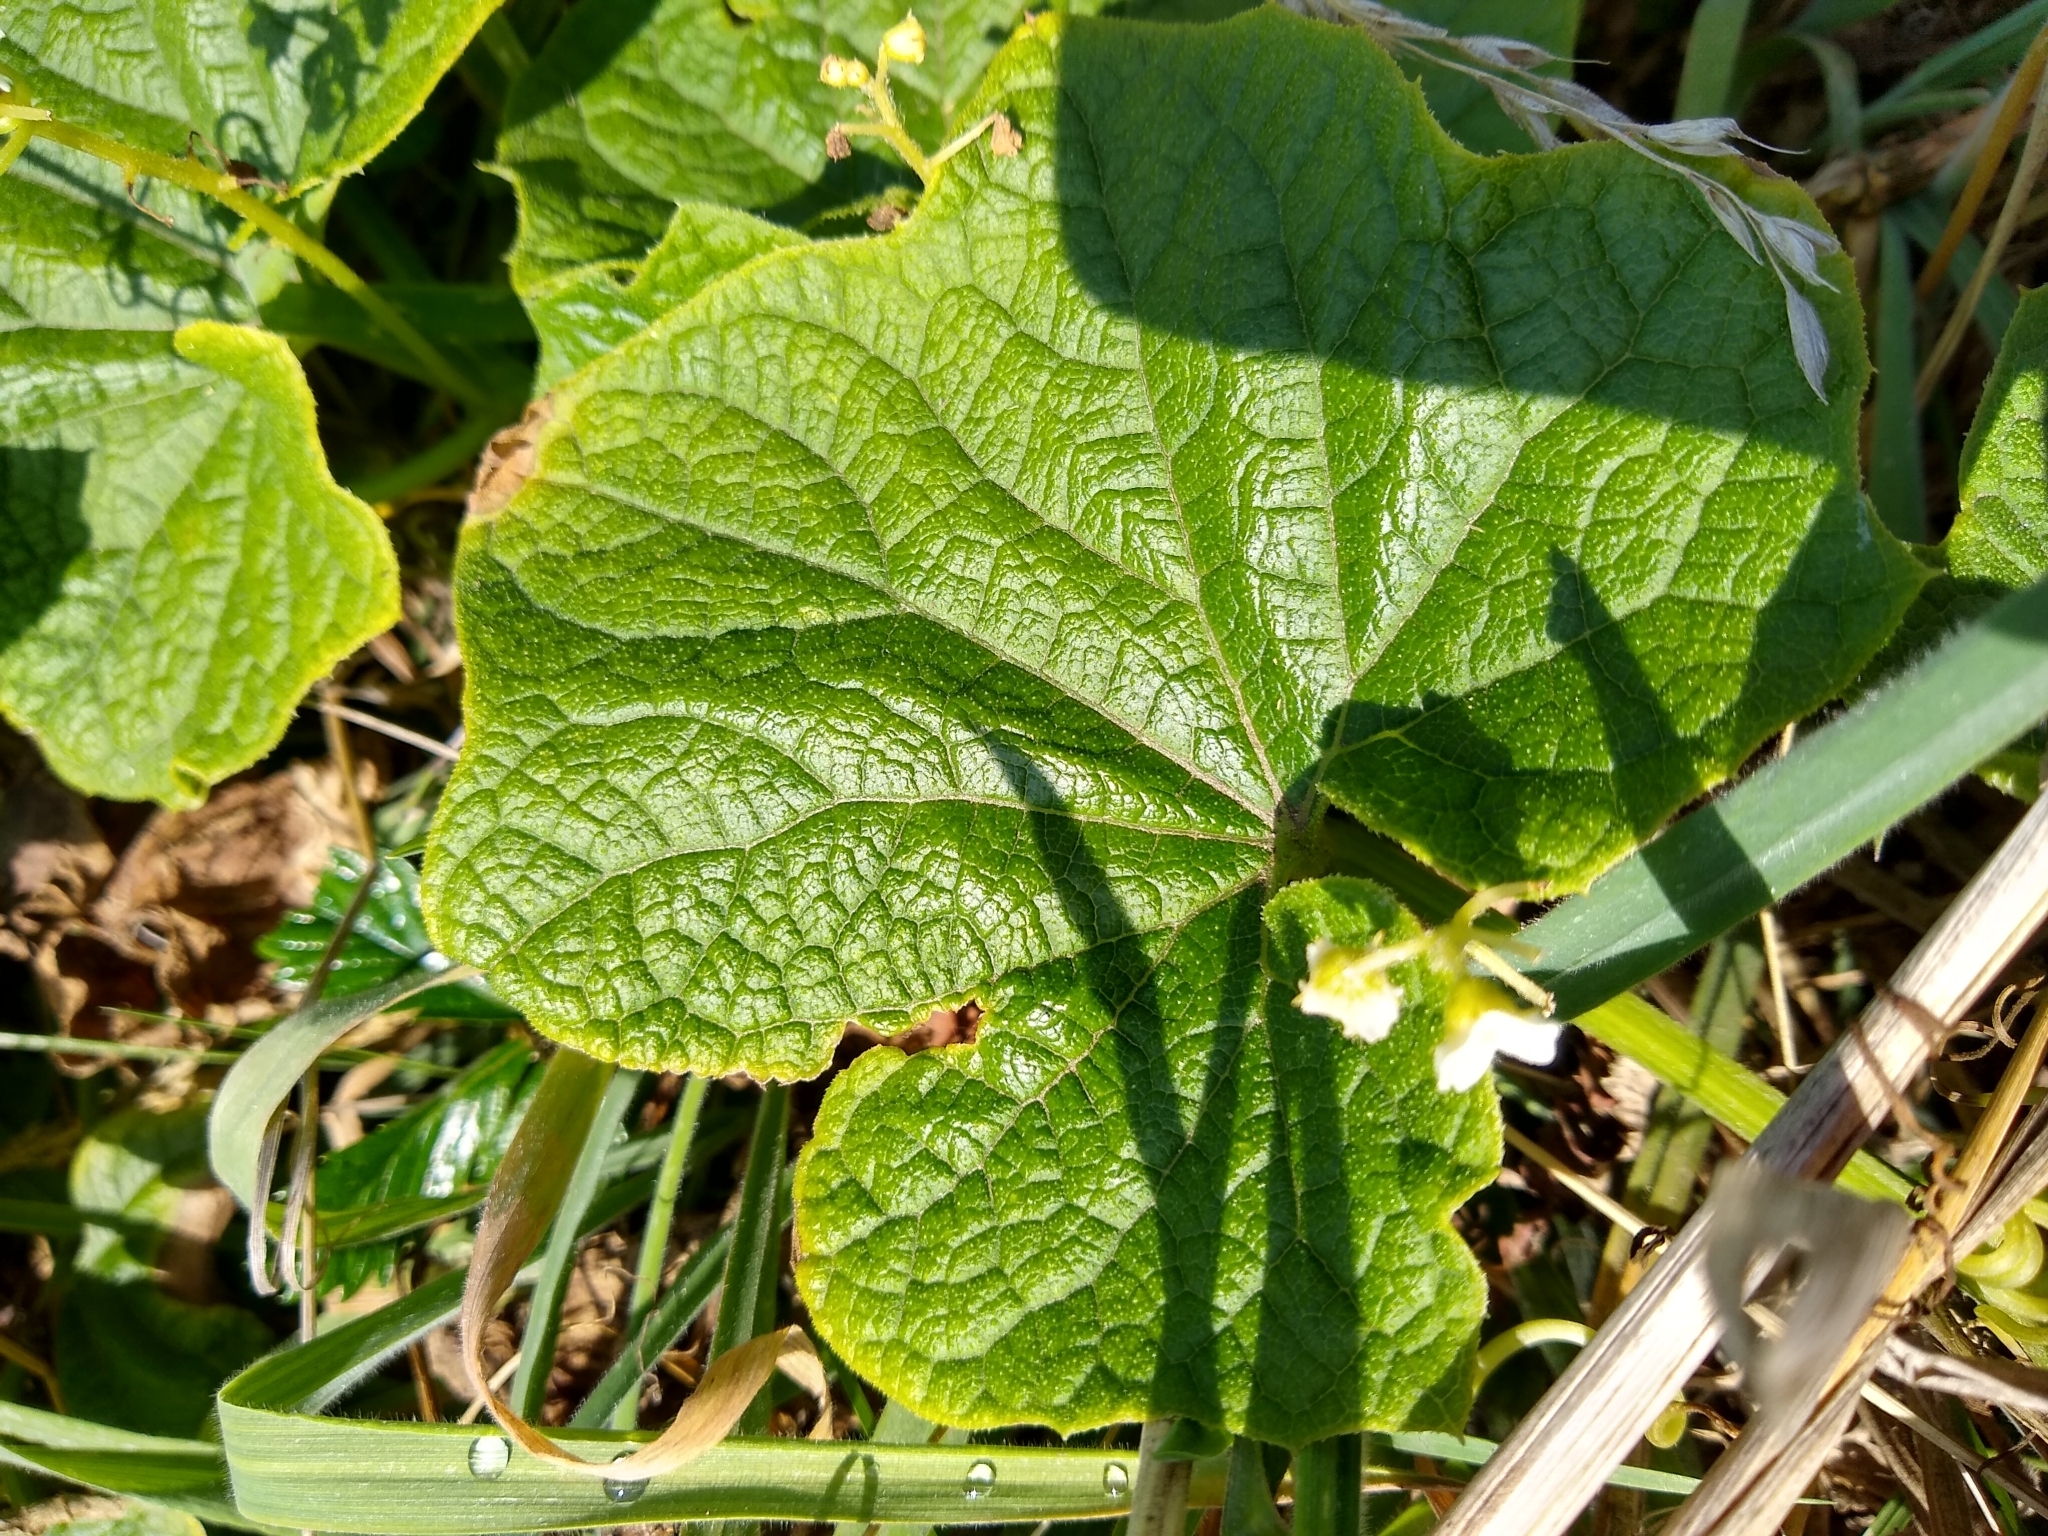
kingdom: Plantae
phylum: Tracheophyta
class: Magnoliopsida
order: Cucurbitales
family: Cucurbitaceae
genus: Marah
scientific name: Marah oregana
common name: Coastal manroot
